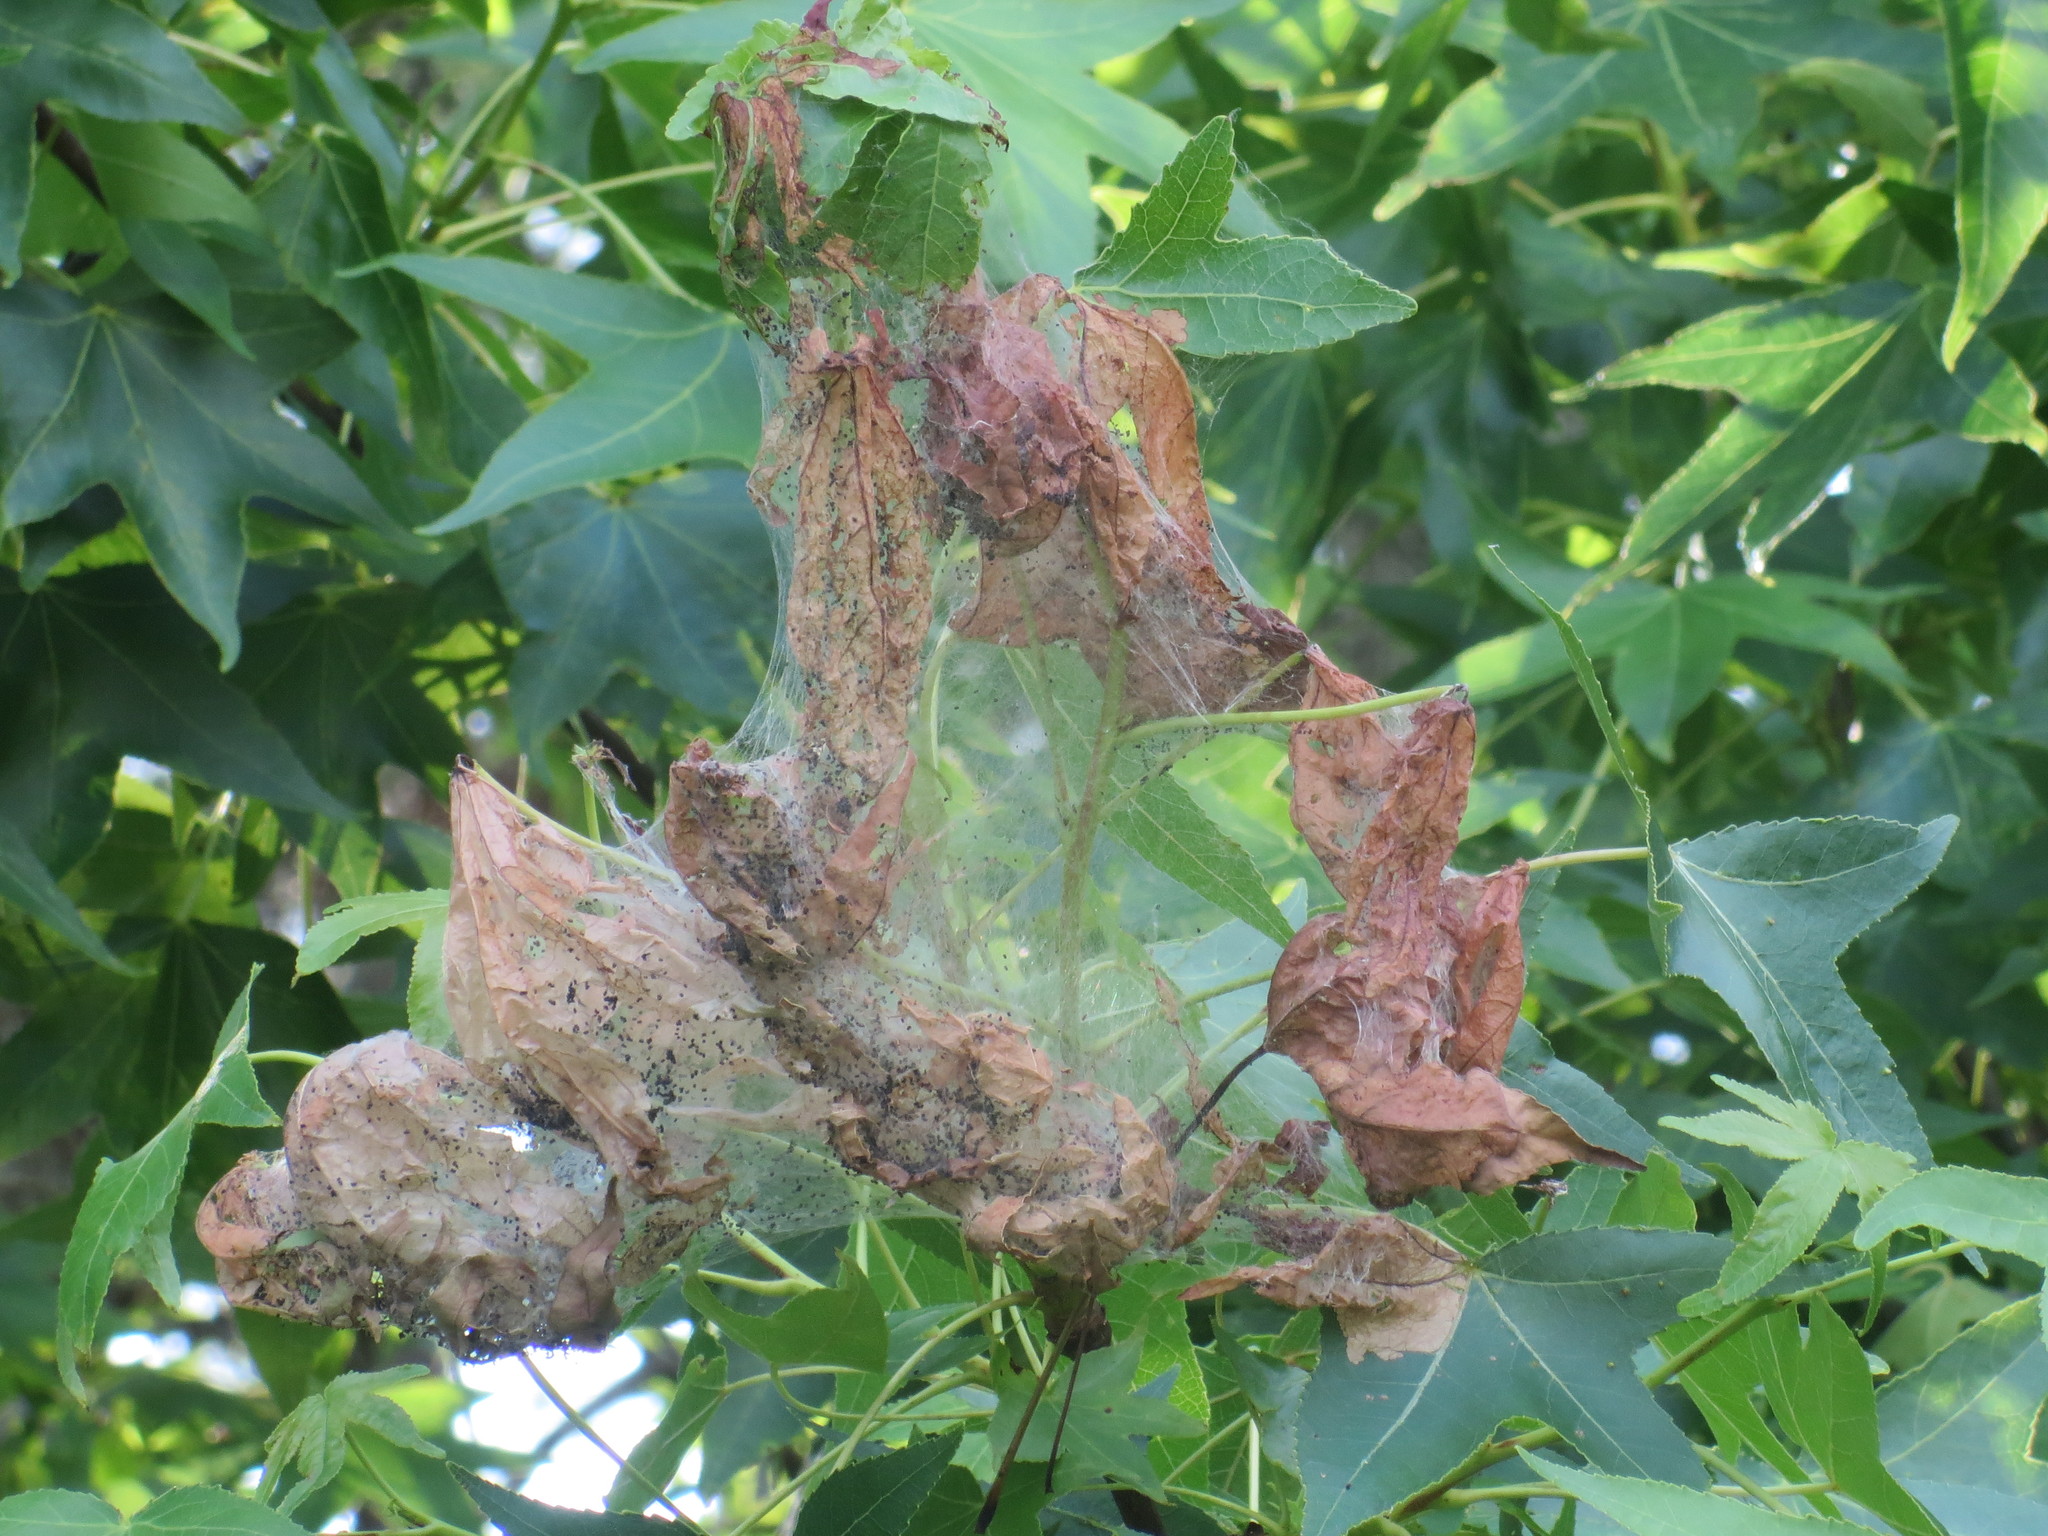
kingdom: Animalia
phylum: Arthropoda
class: Insecta
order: Lepidoptera
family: Erebidae
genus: Hyphantria
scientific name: Hyphantria cunea
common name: American white moth
